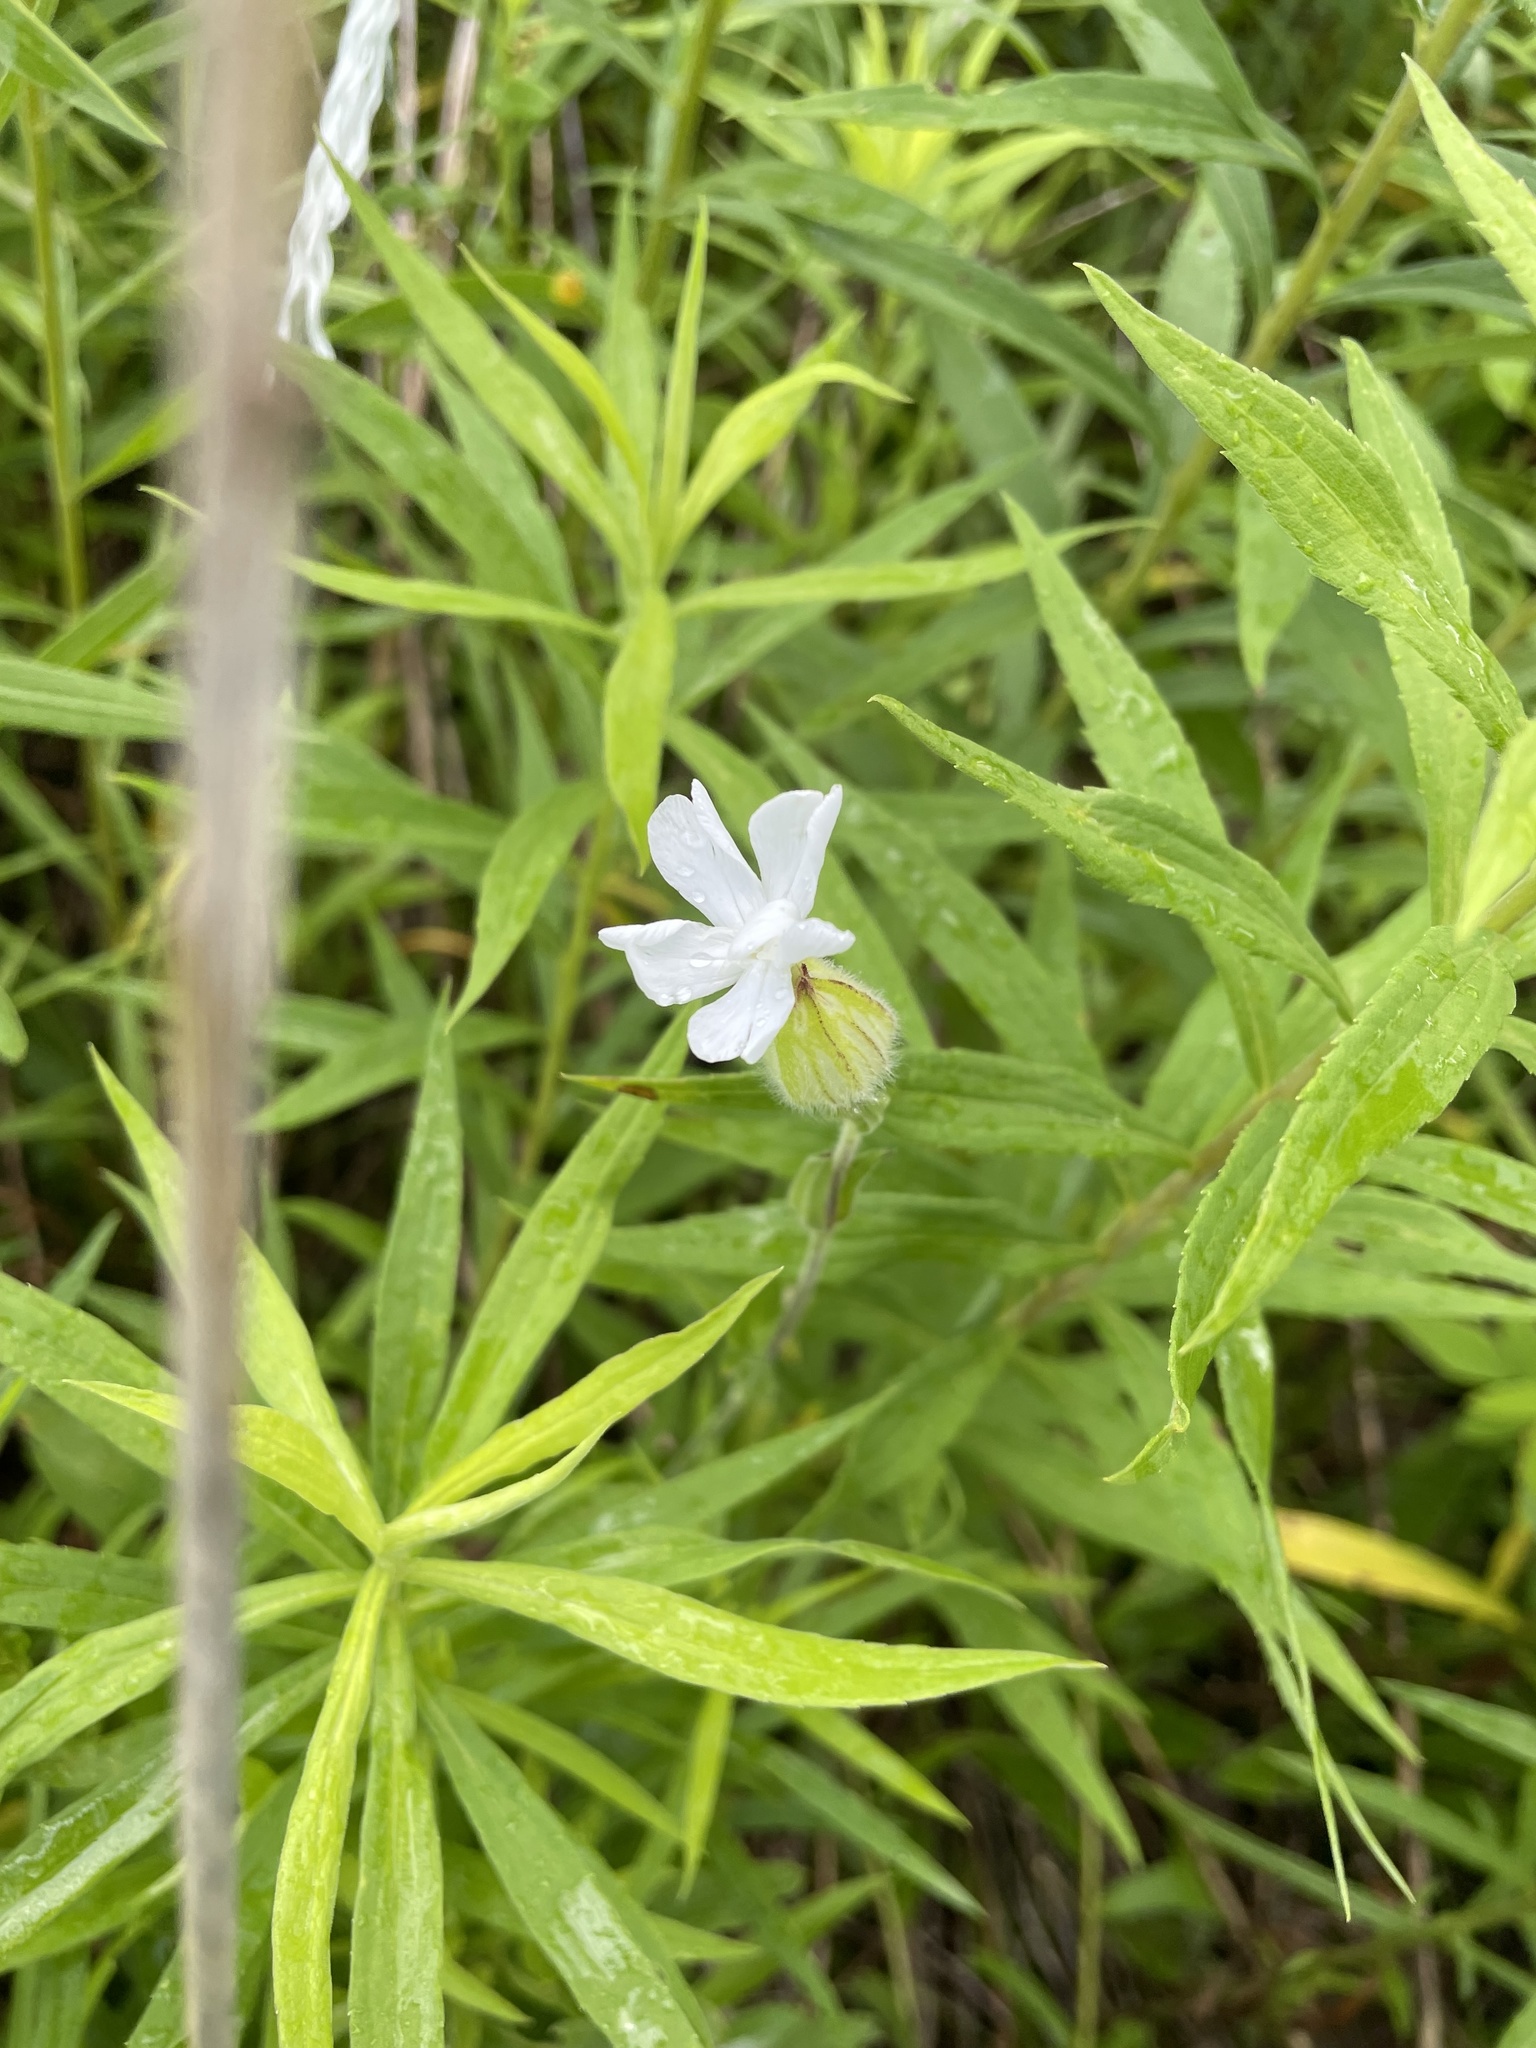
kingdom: Plantae
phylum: Tracheophyta
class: Magnoliopsida
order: Caryophyllales
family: Caryophyllaceae
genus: Silene
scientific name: Silene latifolia
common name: White campion
